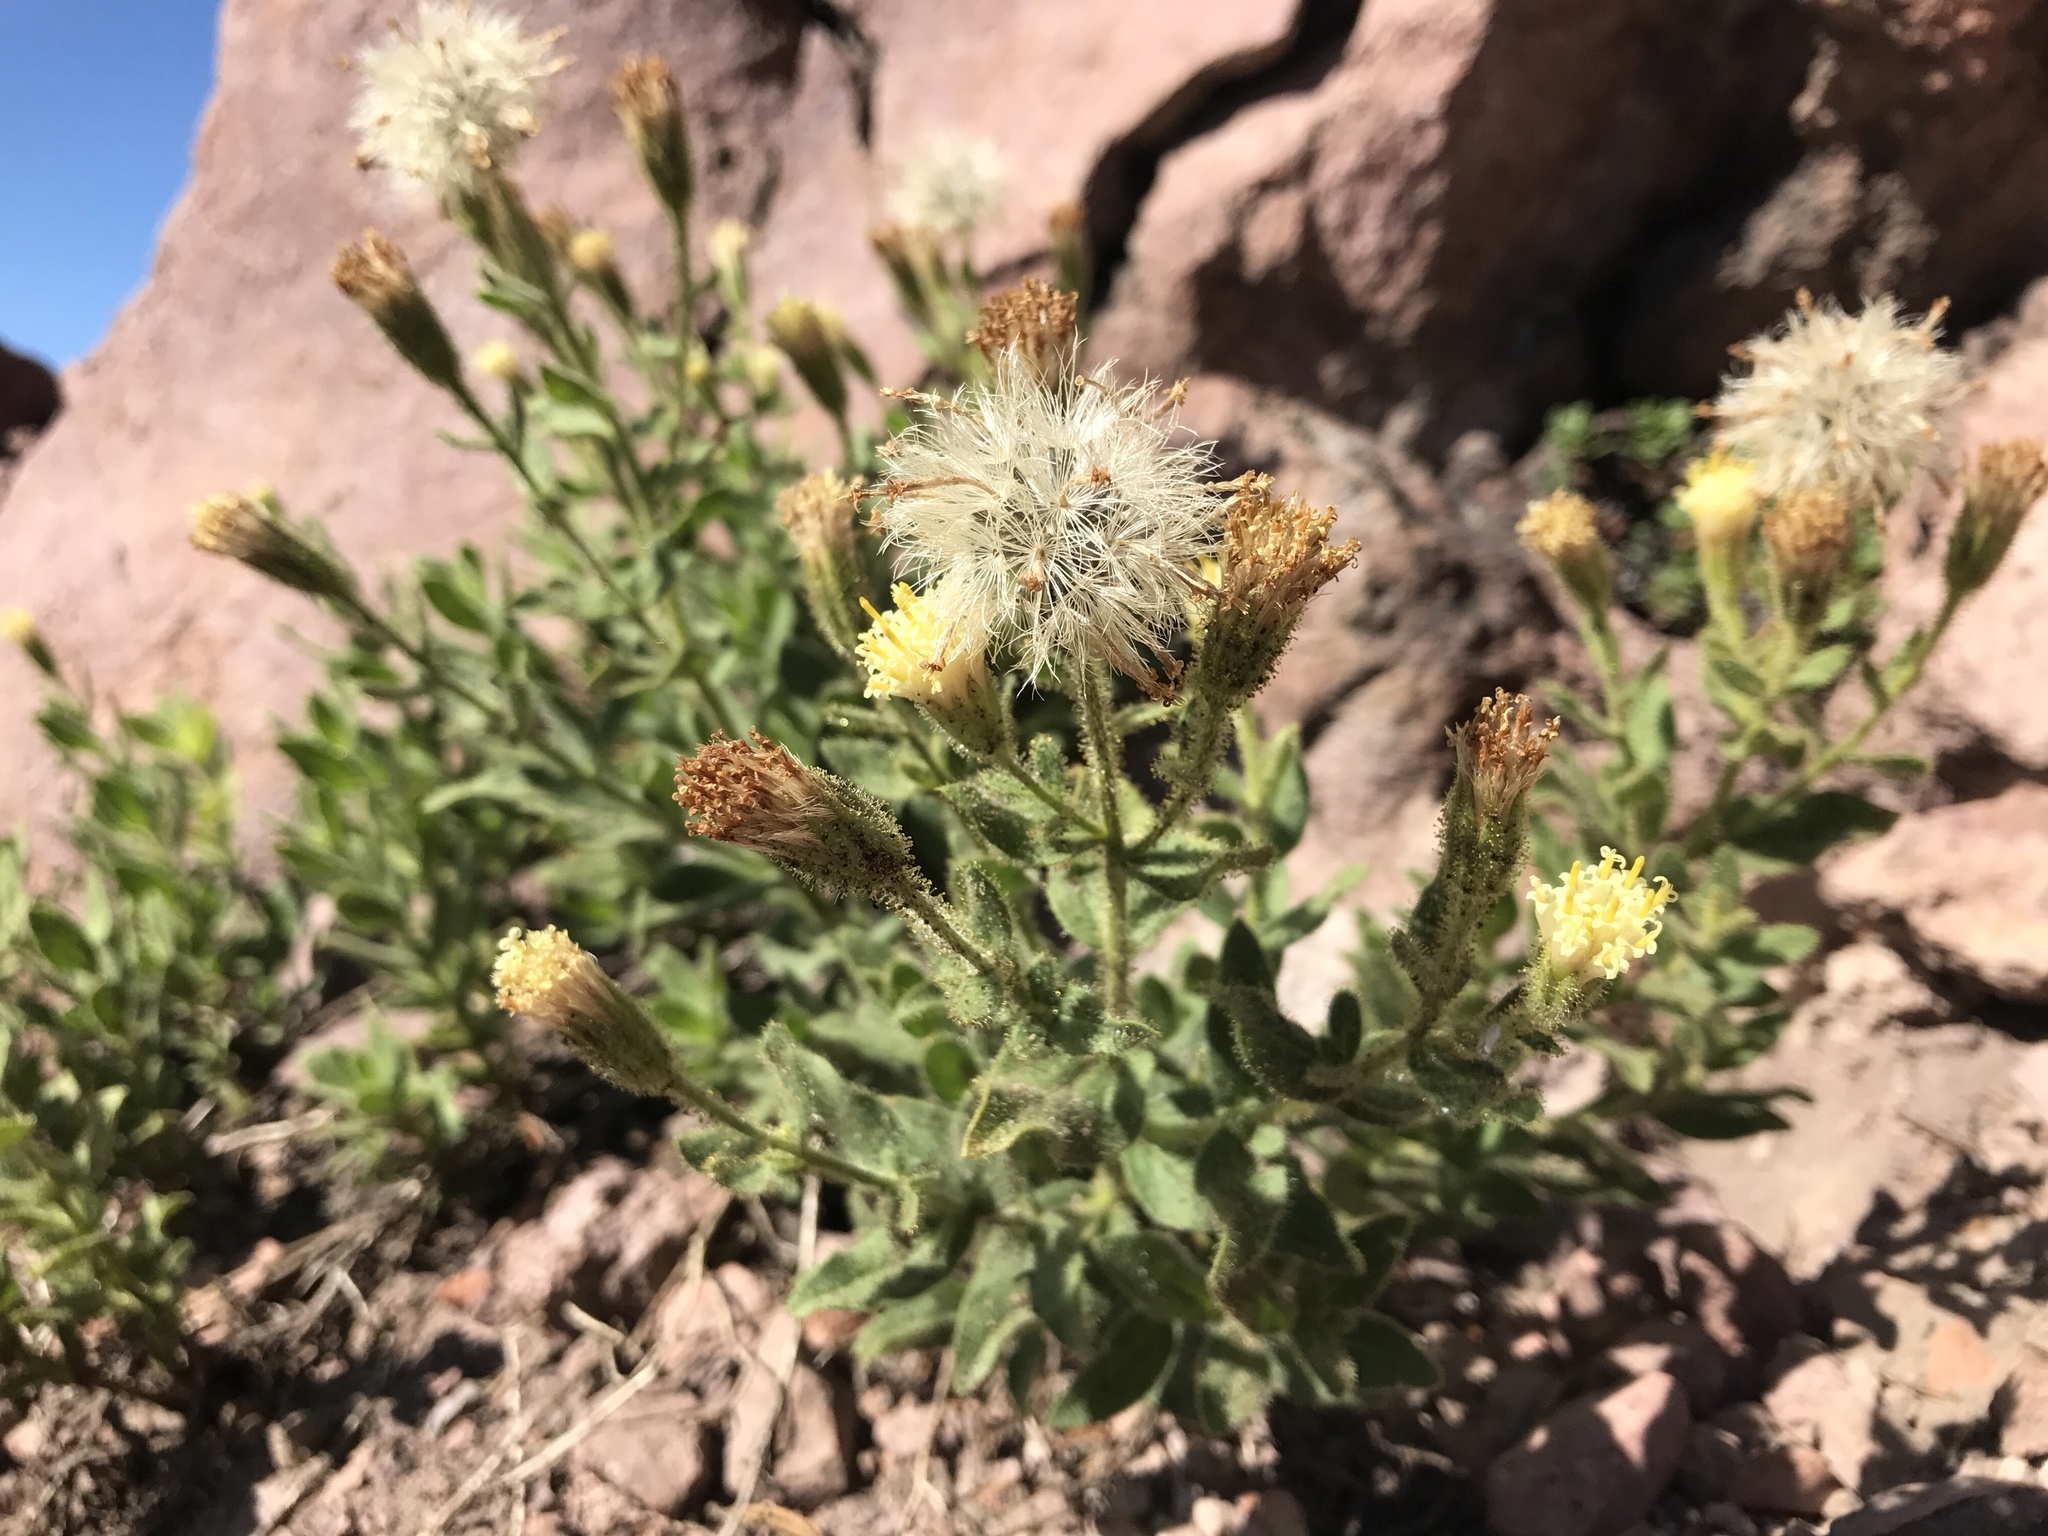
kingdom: Plantae
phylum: Tracheophyta
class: Magnoliopsida
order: Asterales
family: Asteraceae
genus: Arnica
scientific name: Arnica viscosa
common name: Mt. shasta arnica
